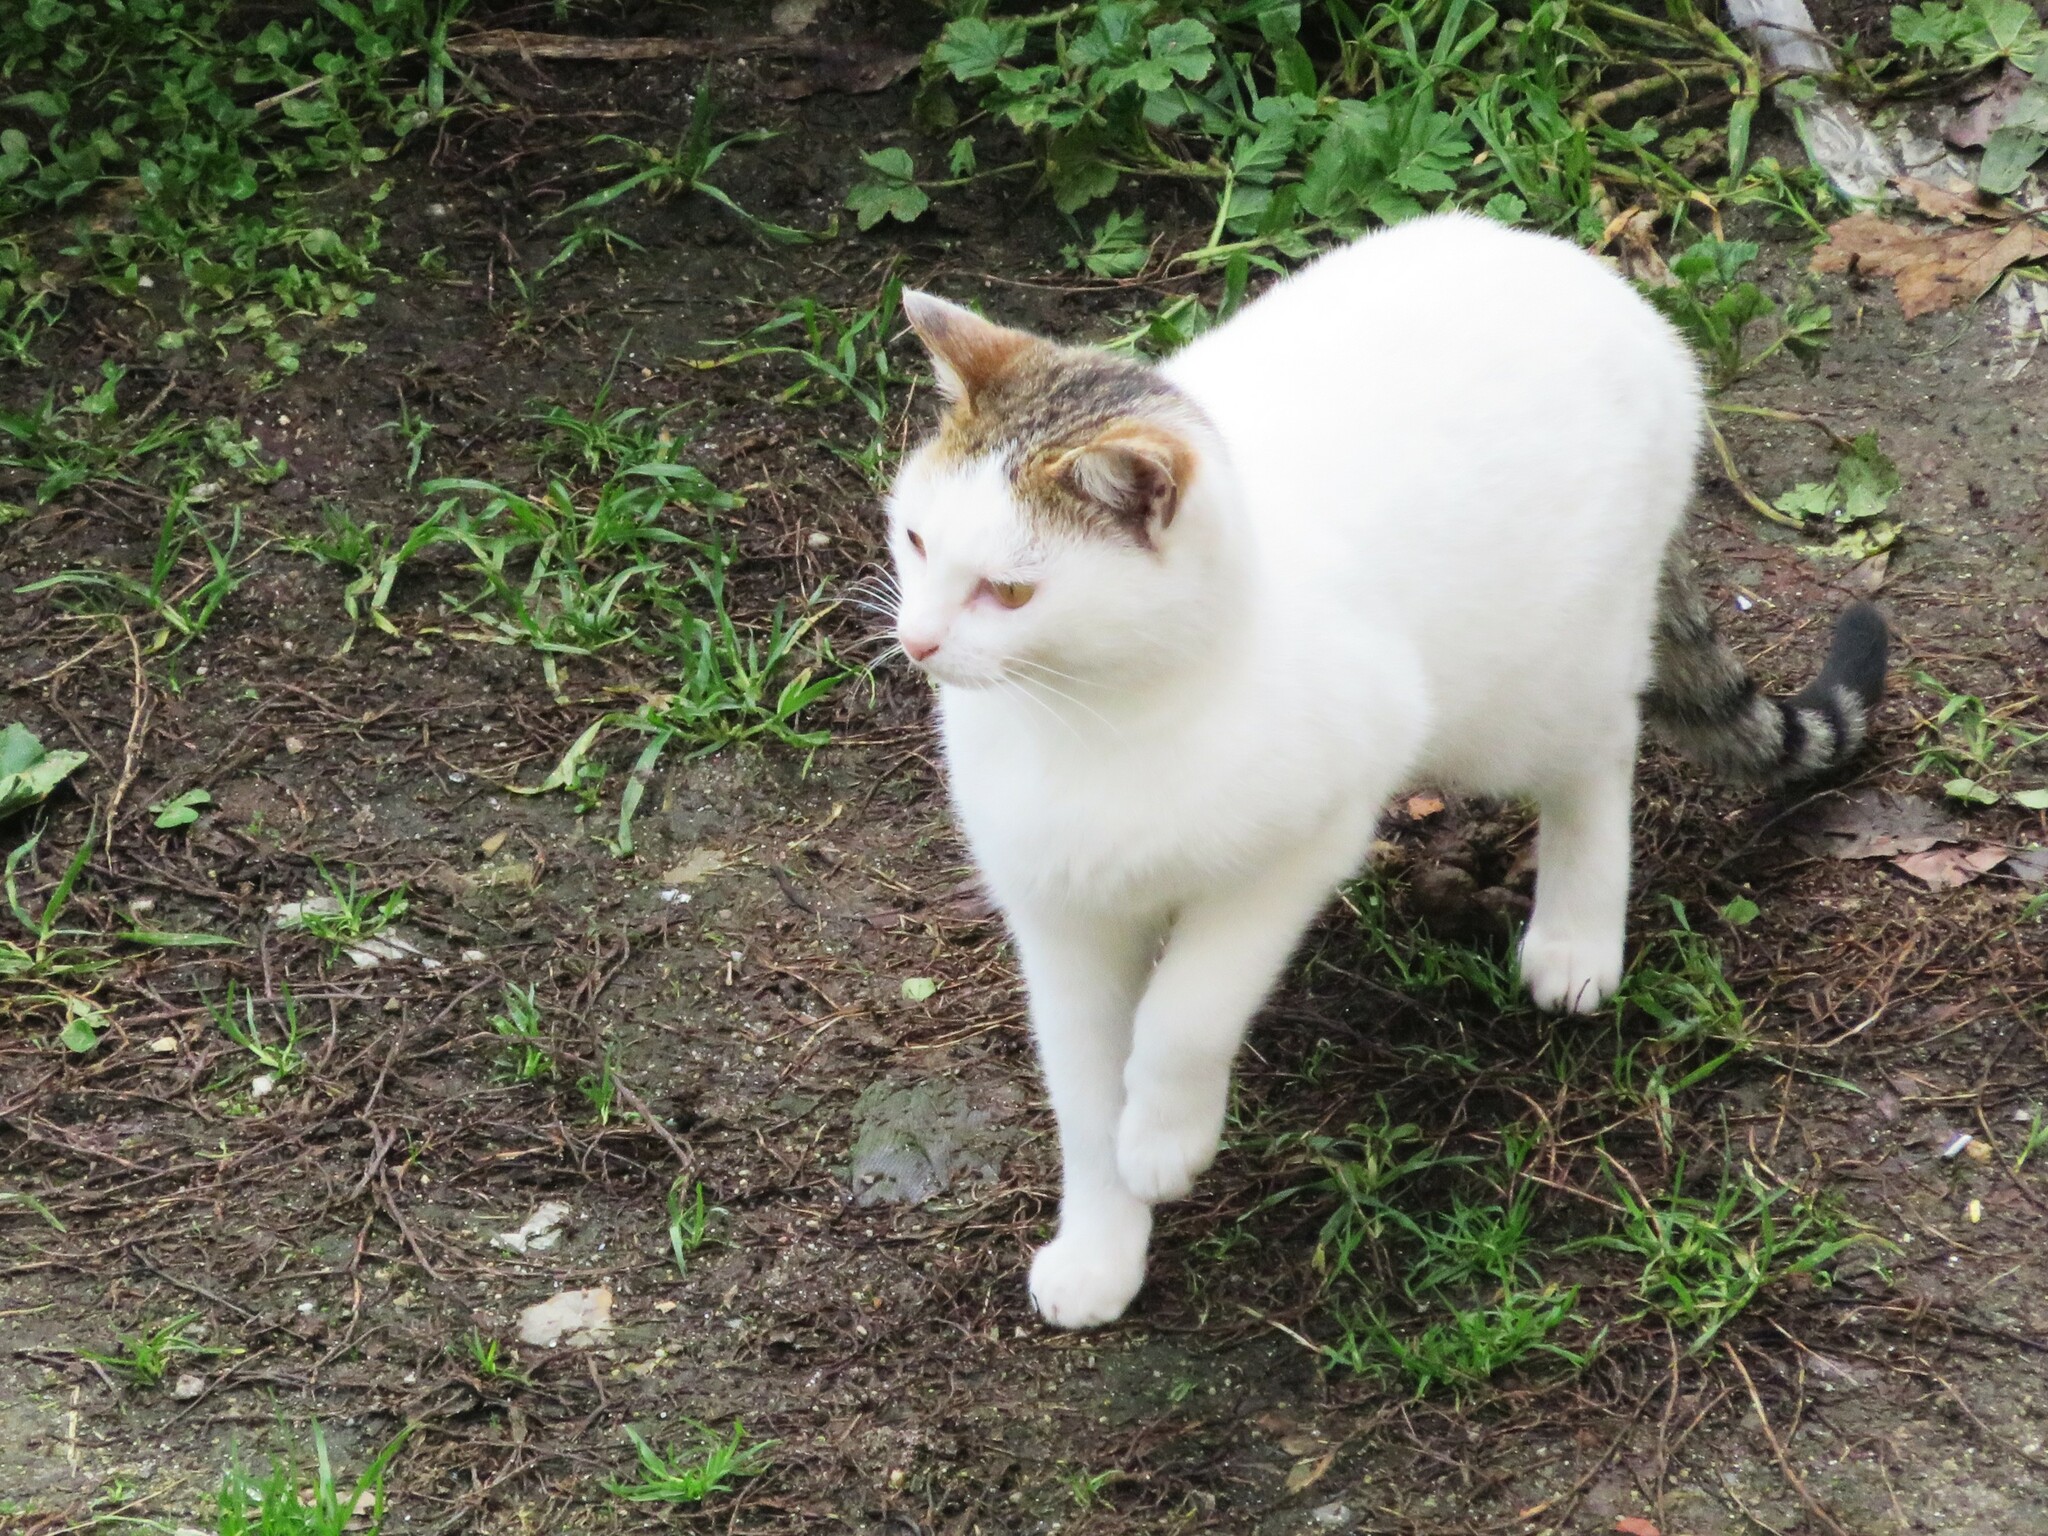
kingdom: Animalia
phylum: Chordata
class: Mammalia
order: Carnivora
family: Felidae
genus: Felis
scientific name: Felis catus
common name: Domestic cat
